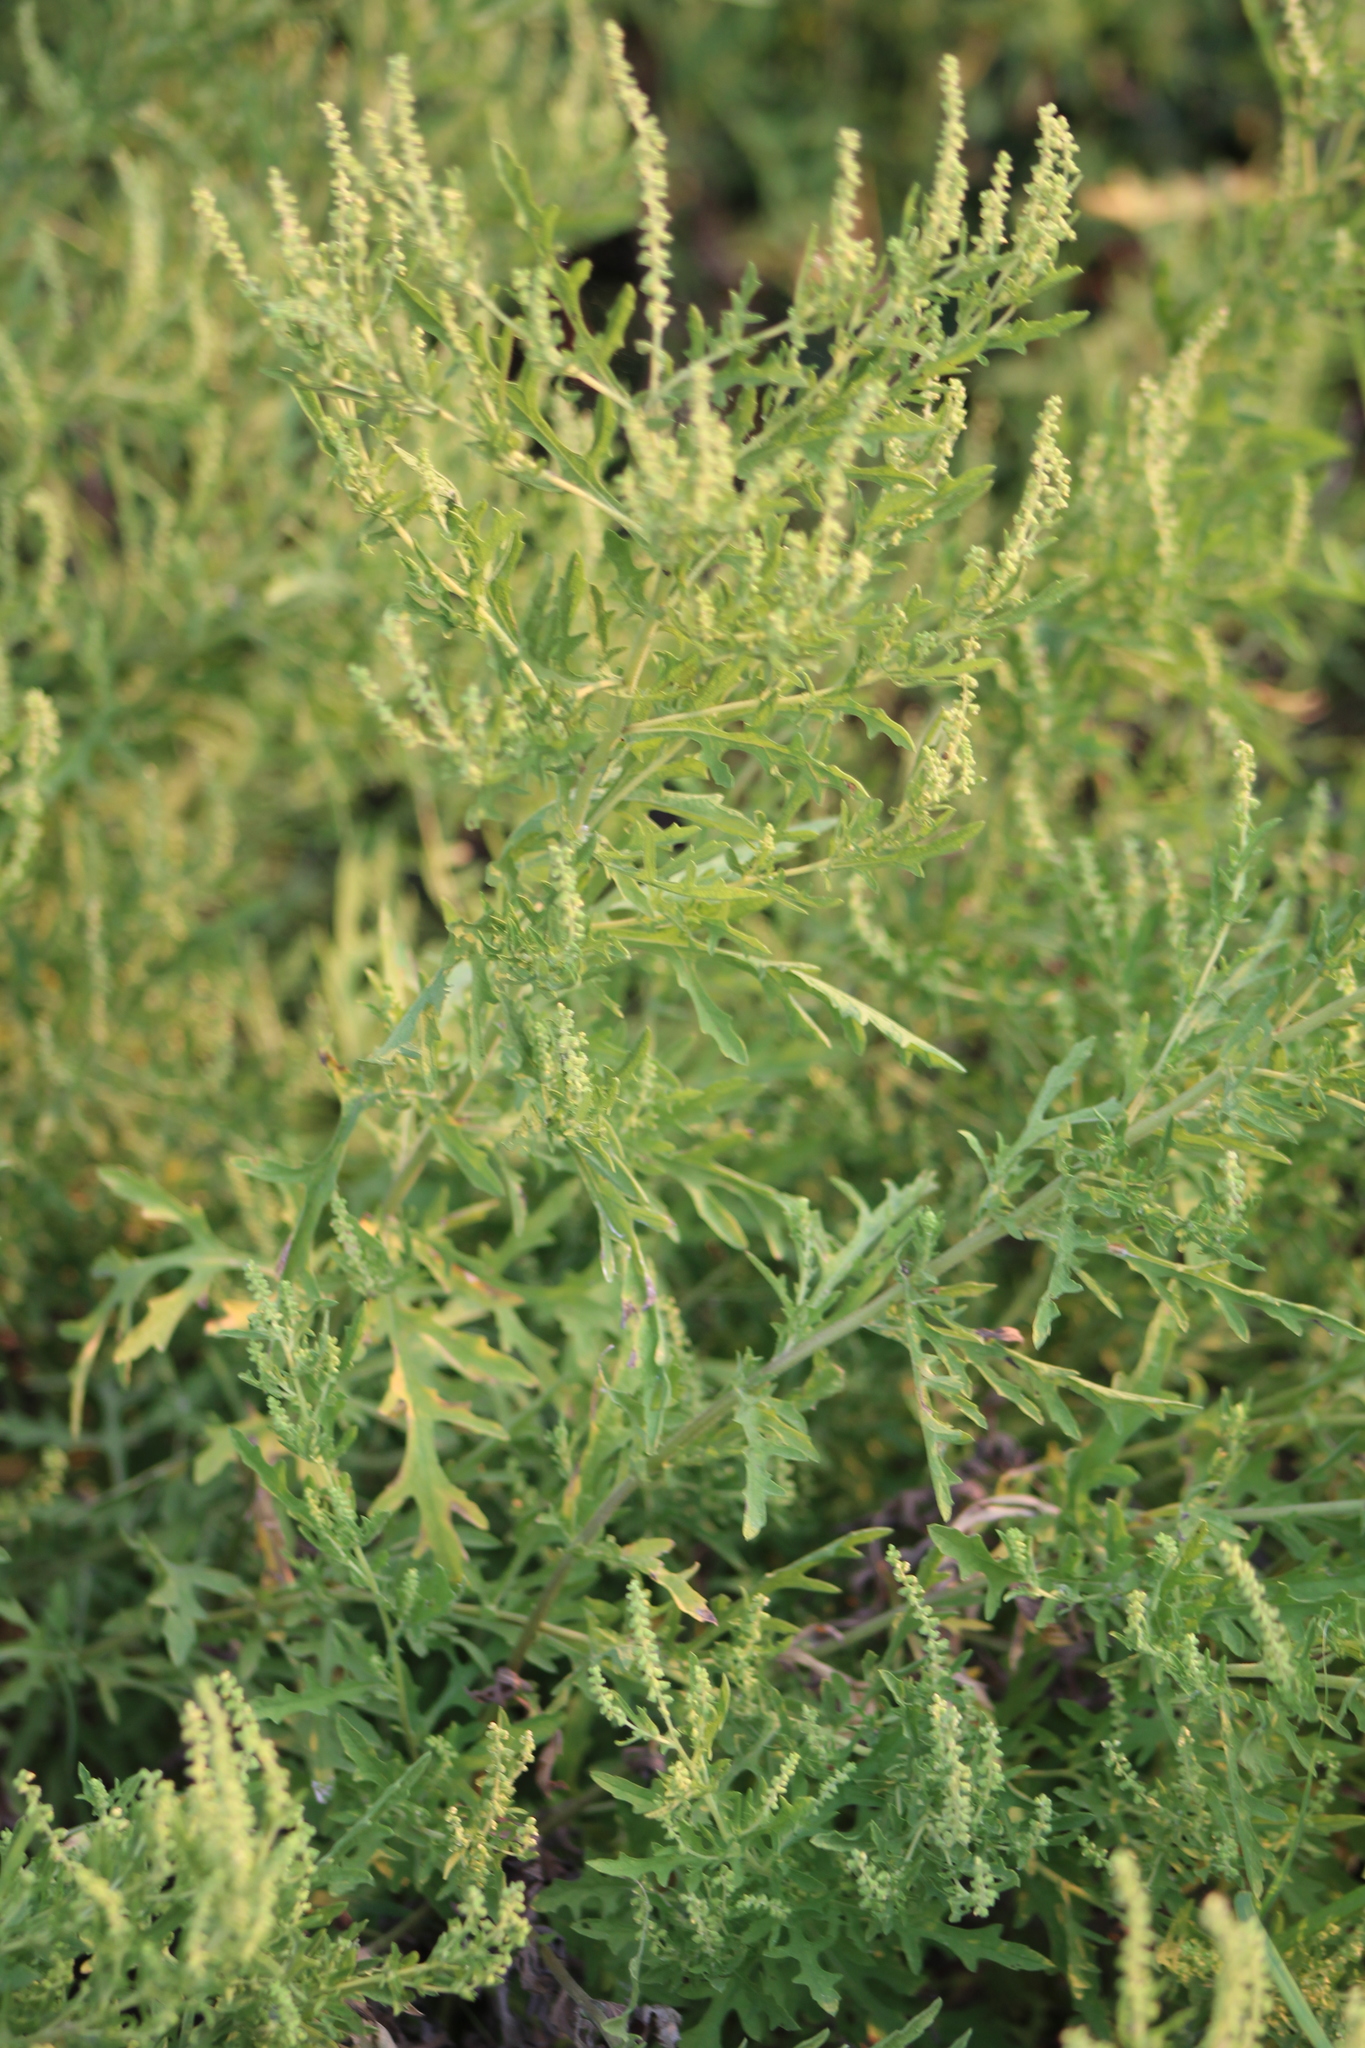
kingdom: Plantae
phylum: Tracheophyta
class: Magnoliopsida
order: Asterales
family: Asteraceae
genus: Ambrosia
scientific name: Ambrosia psilostachya
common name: Perennial ragweed
